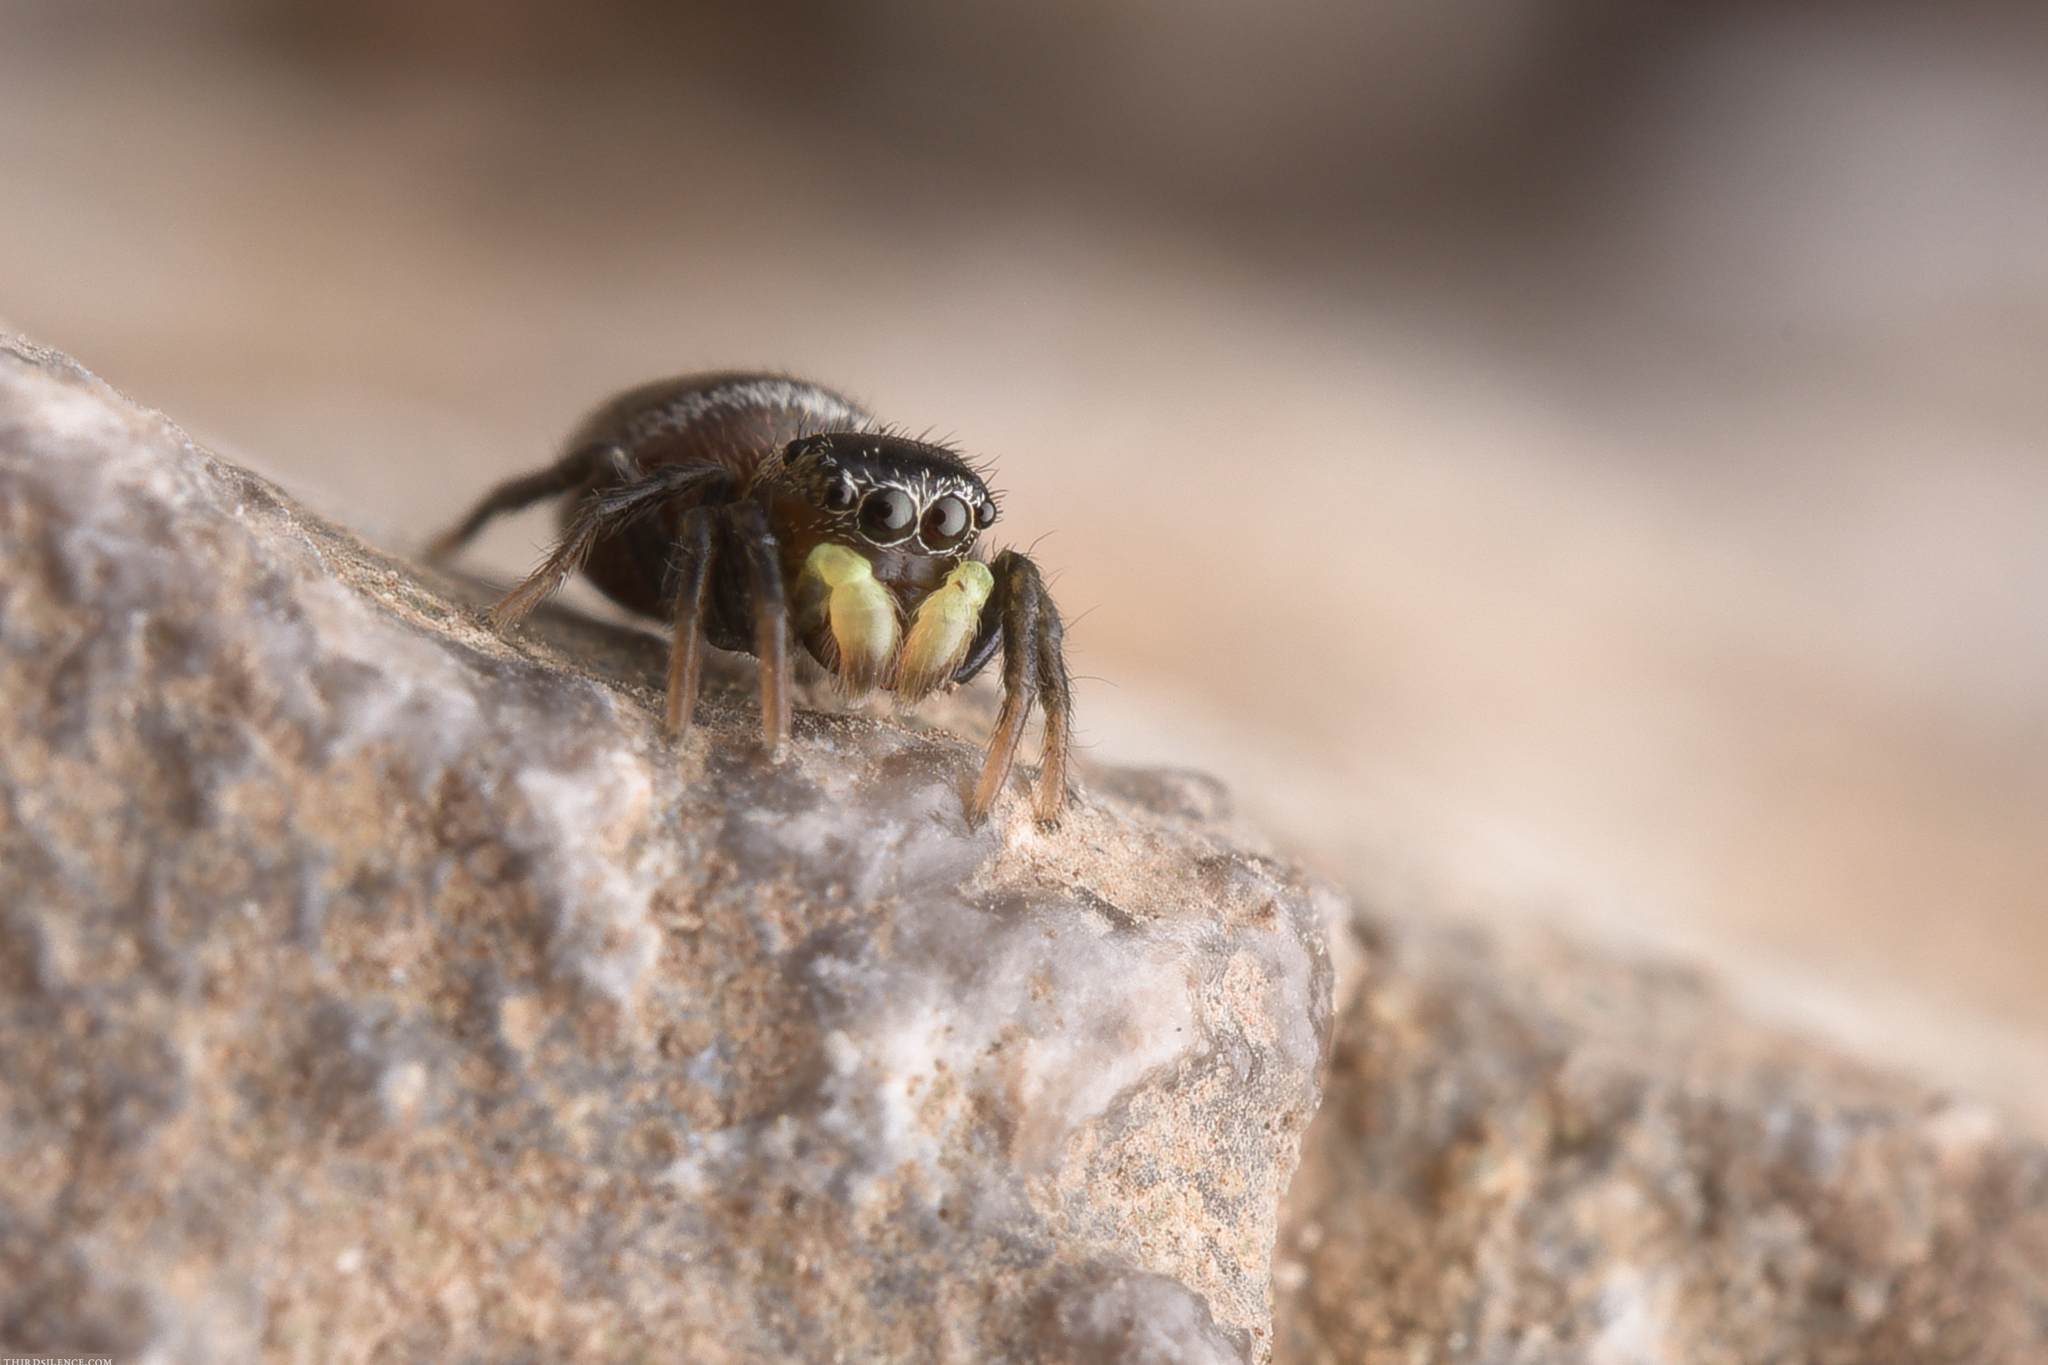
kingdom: Animalia
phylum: Arthropoda
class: Arachnida
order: Araneae
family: Salticidae
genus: Heliophanus
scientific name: Heliophanus apiatus
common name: Sun jumping spider
